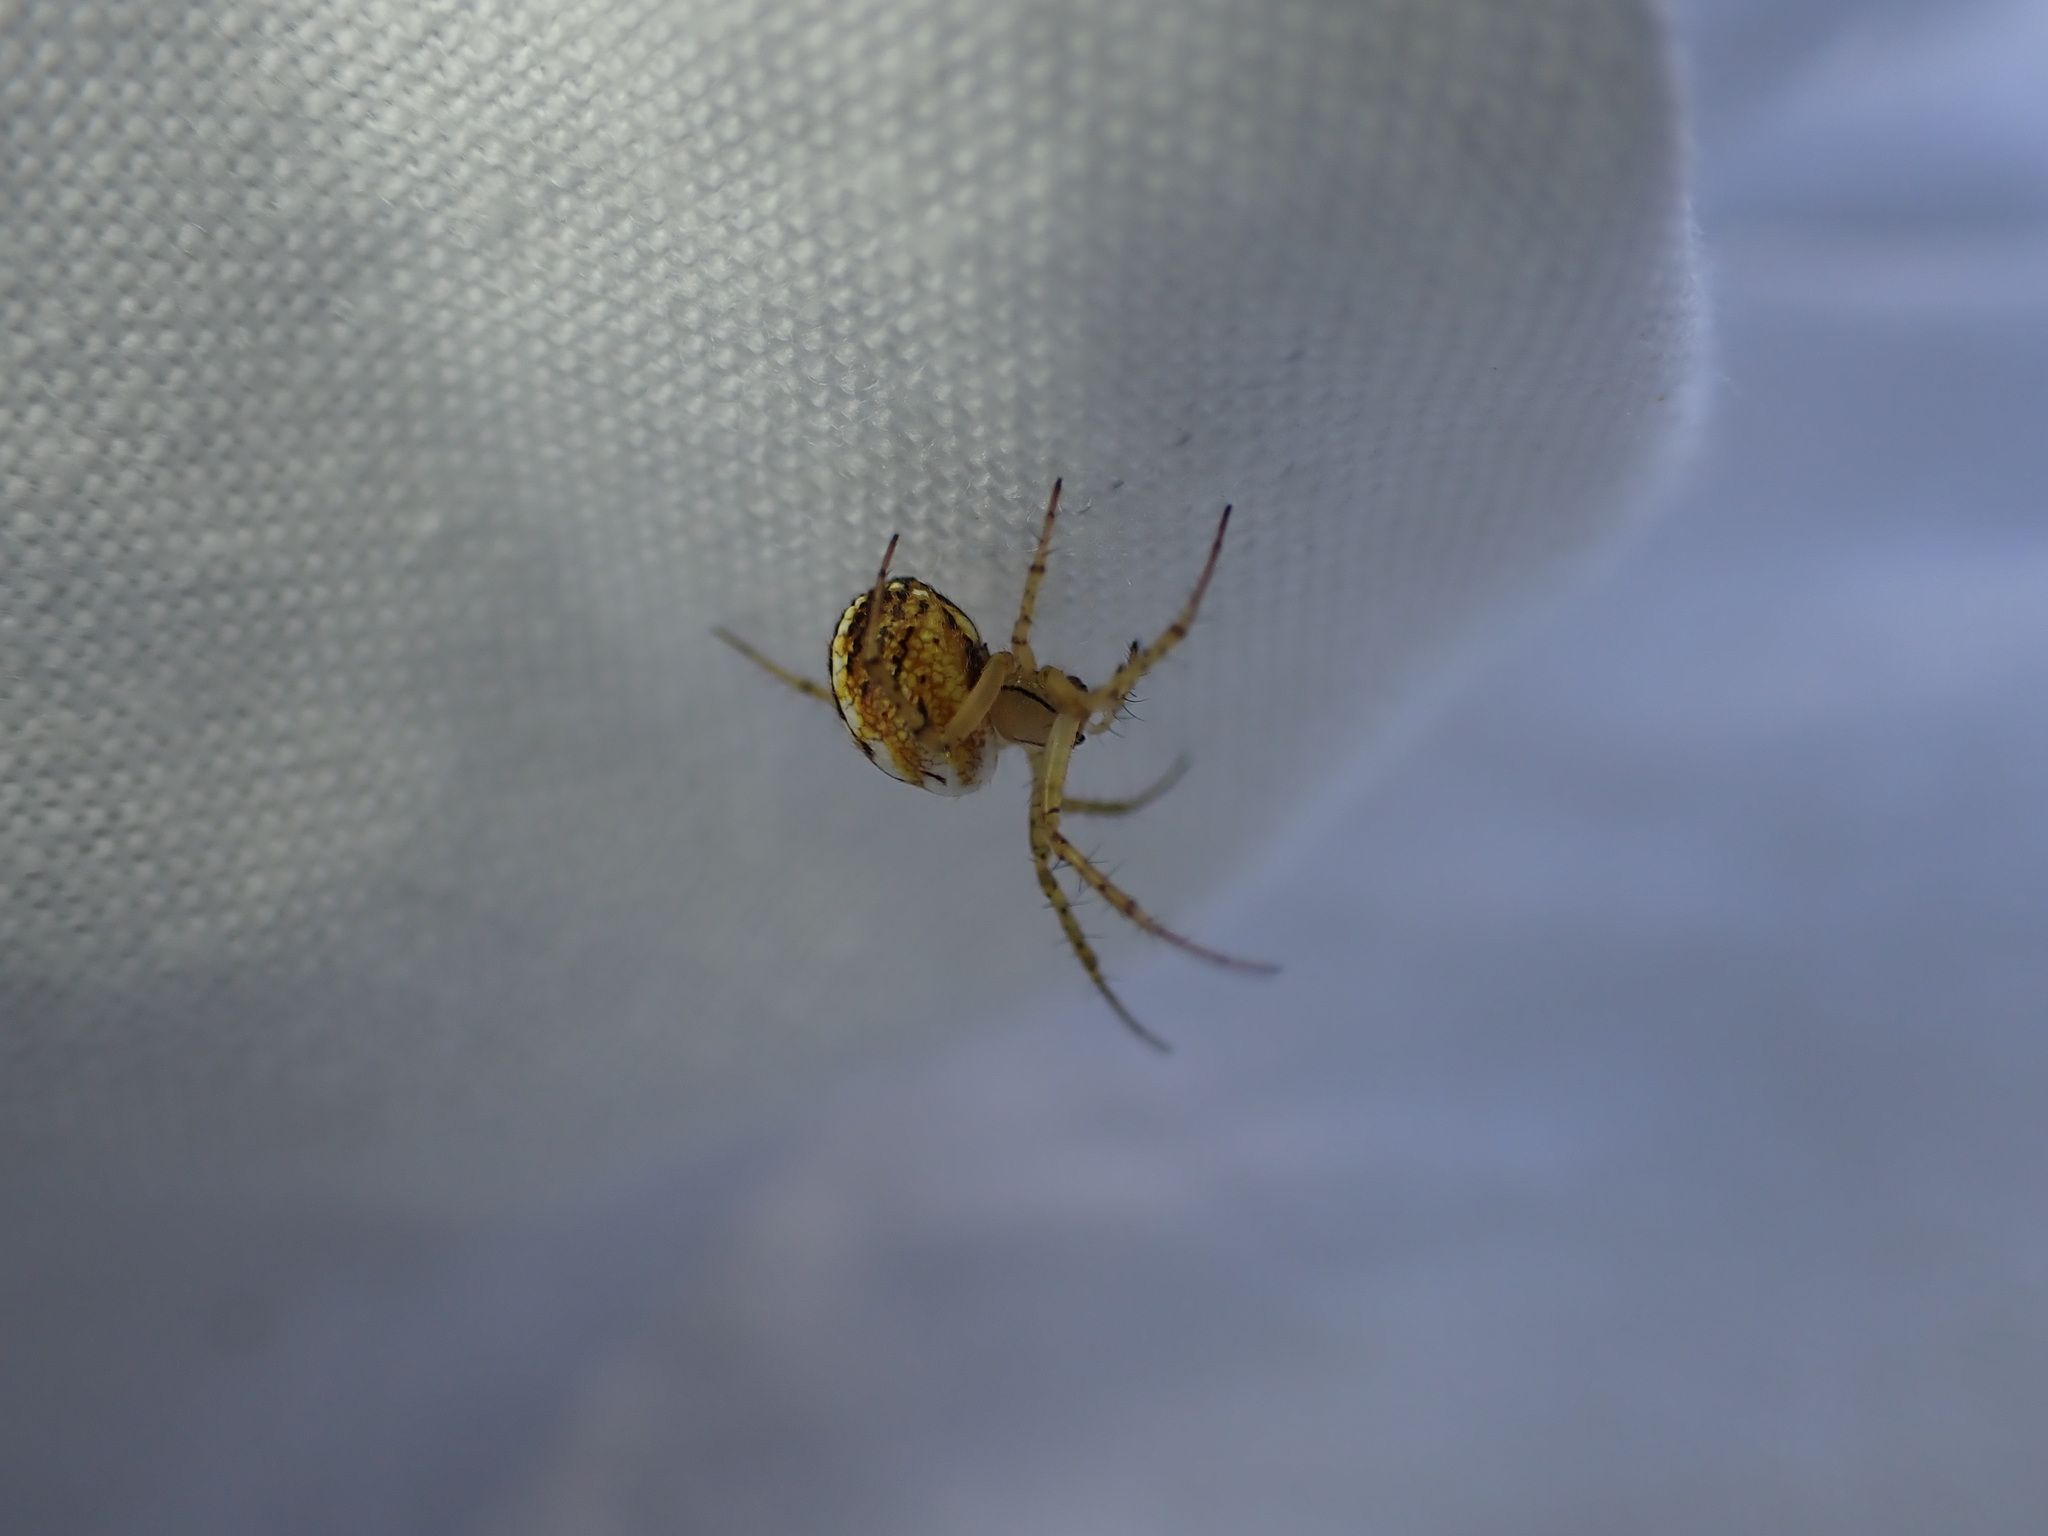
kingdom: Animalia
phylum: Arthropoda
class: Arachnida
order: Araneae
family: Araneidae
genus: Mangora
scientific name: Mangora acalypha
